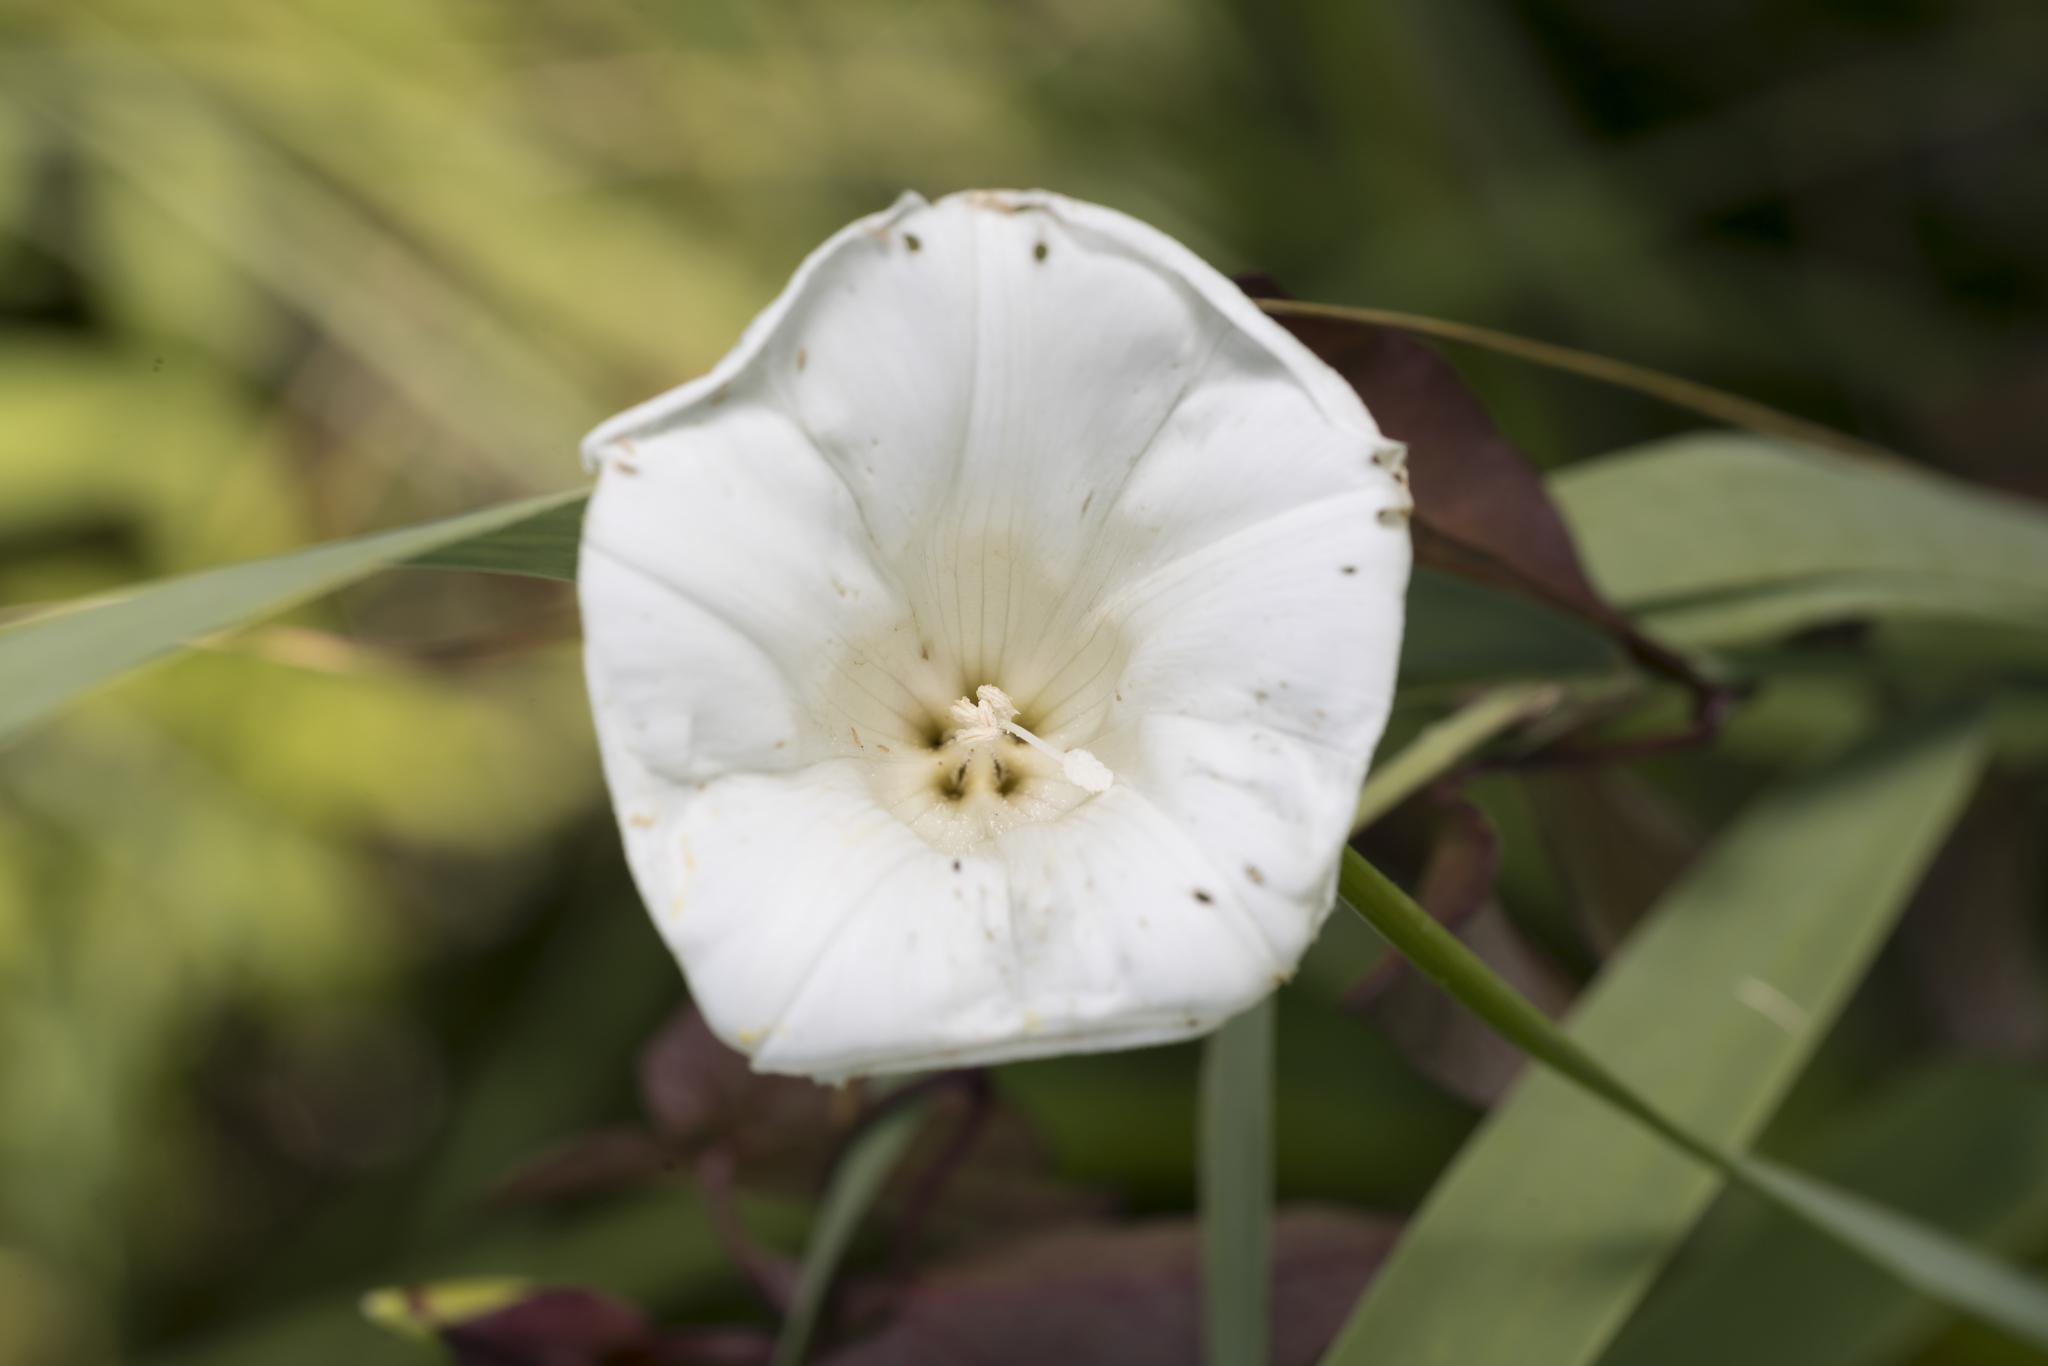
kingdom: Plantae
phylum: Tracheophyta
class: Magnoliopsida
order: Solanales
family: Convolvulaceae
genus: Calystegia
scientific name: Calystegia sepium
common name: Hedge bindweed
